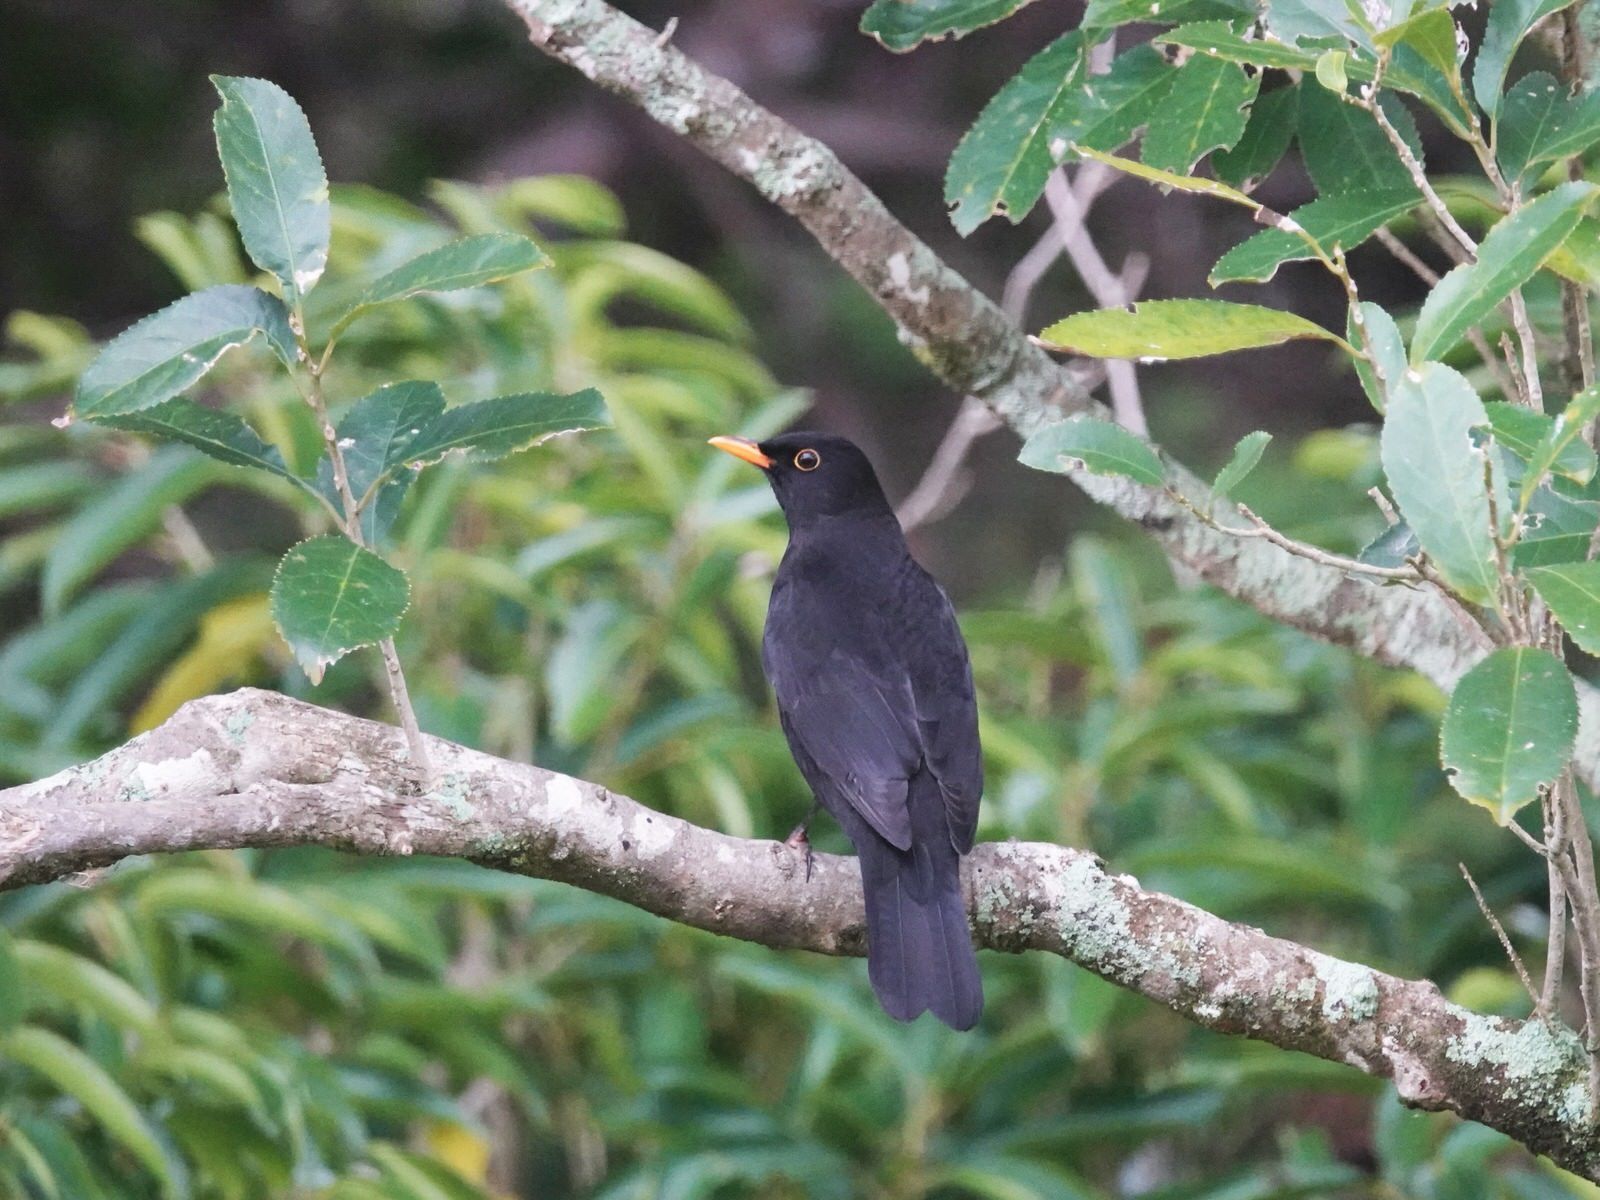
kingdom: Animalia
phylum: Chordata
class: Aves
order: Passeriformes
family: Turdidae
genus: Turdus
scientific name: Turdus merula
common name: Common blackbird
